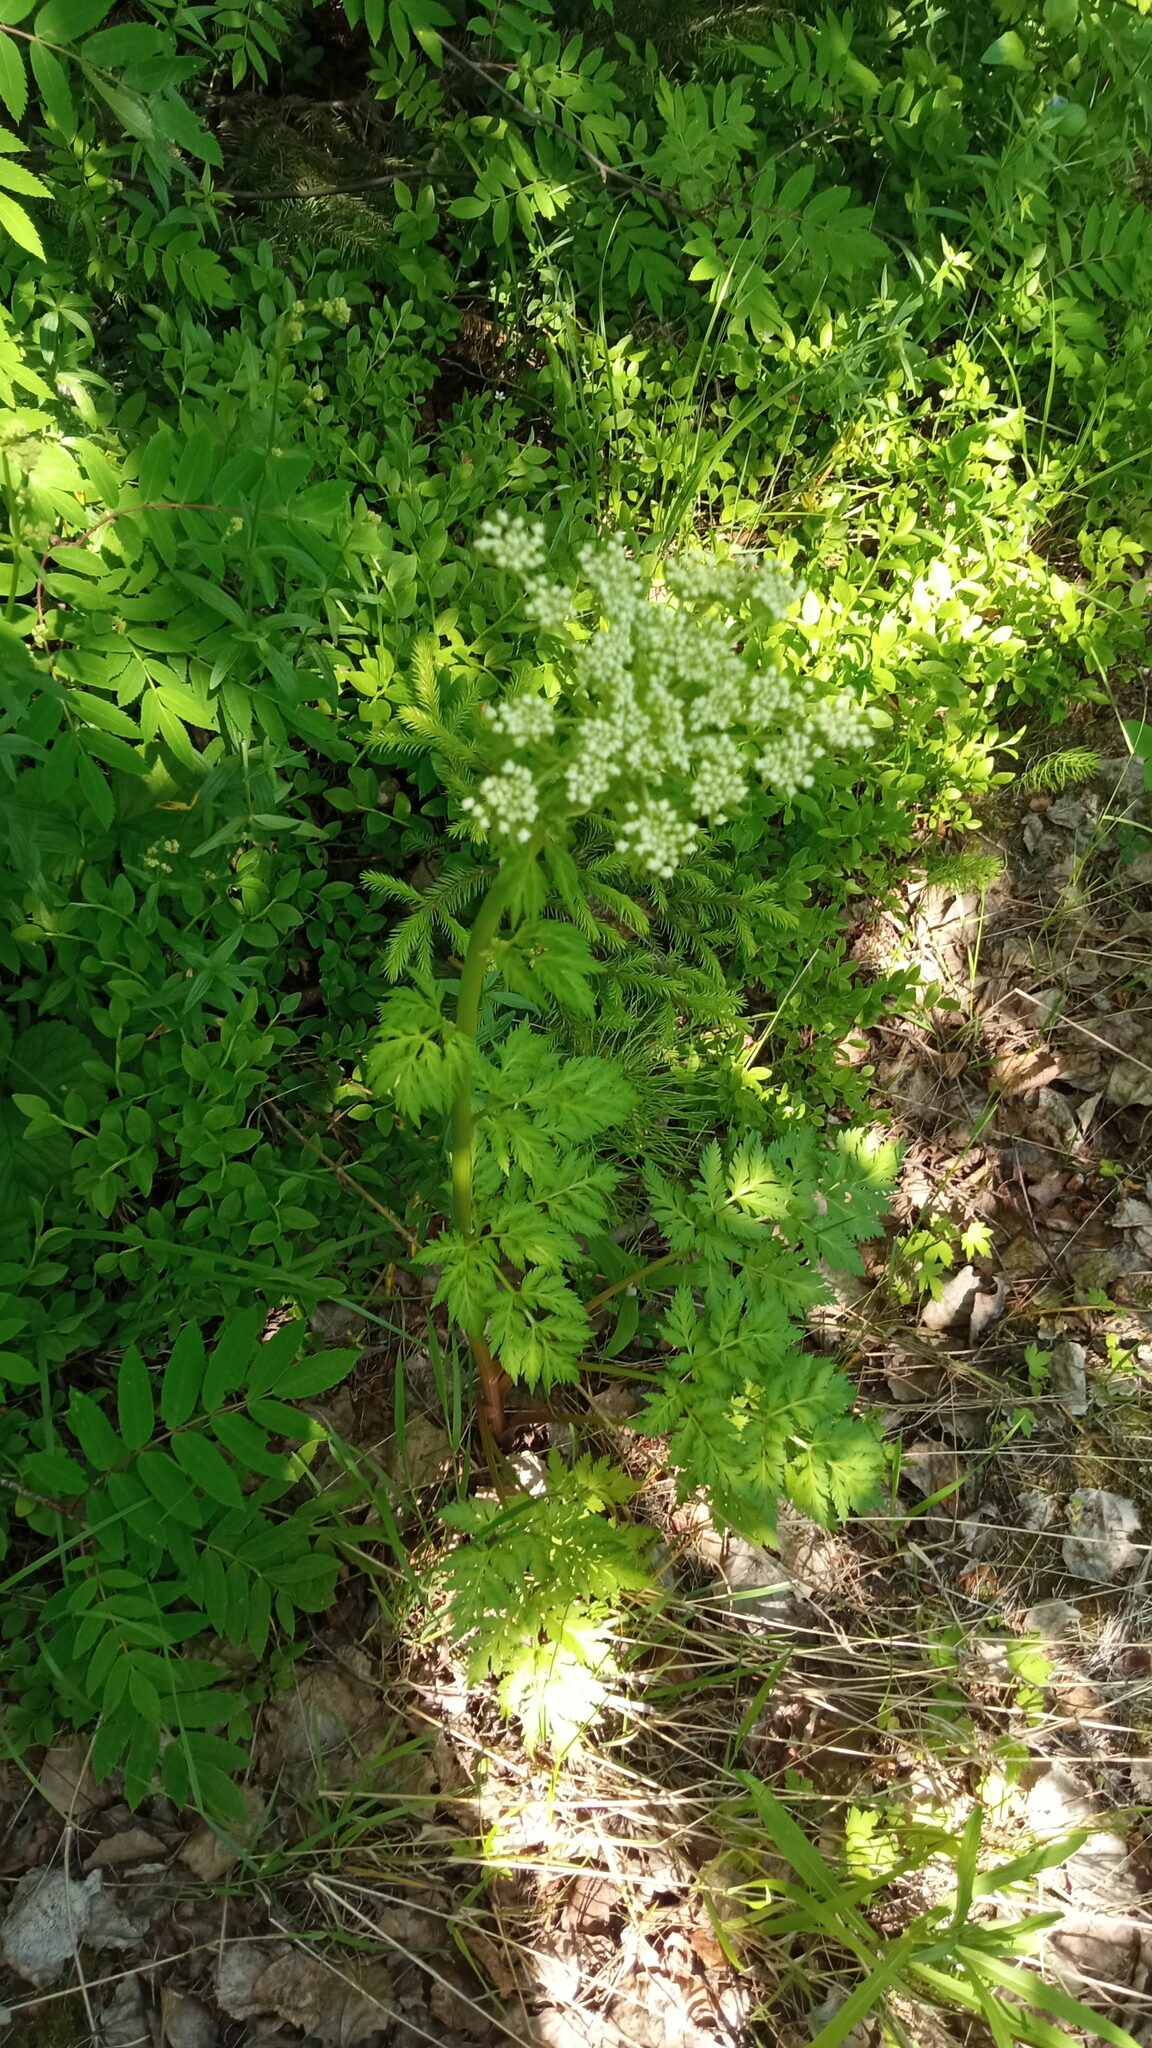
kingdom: Plantae
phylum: Tracheophyta
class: Magnoliopsida
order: Apiales
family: Apiaceae
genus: Pleurospermum
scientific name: Pleurospermum uralense
